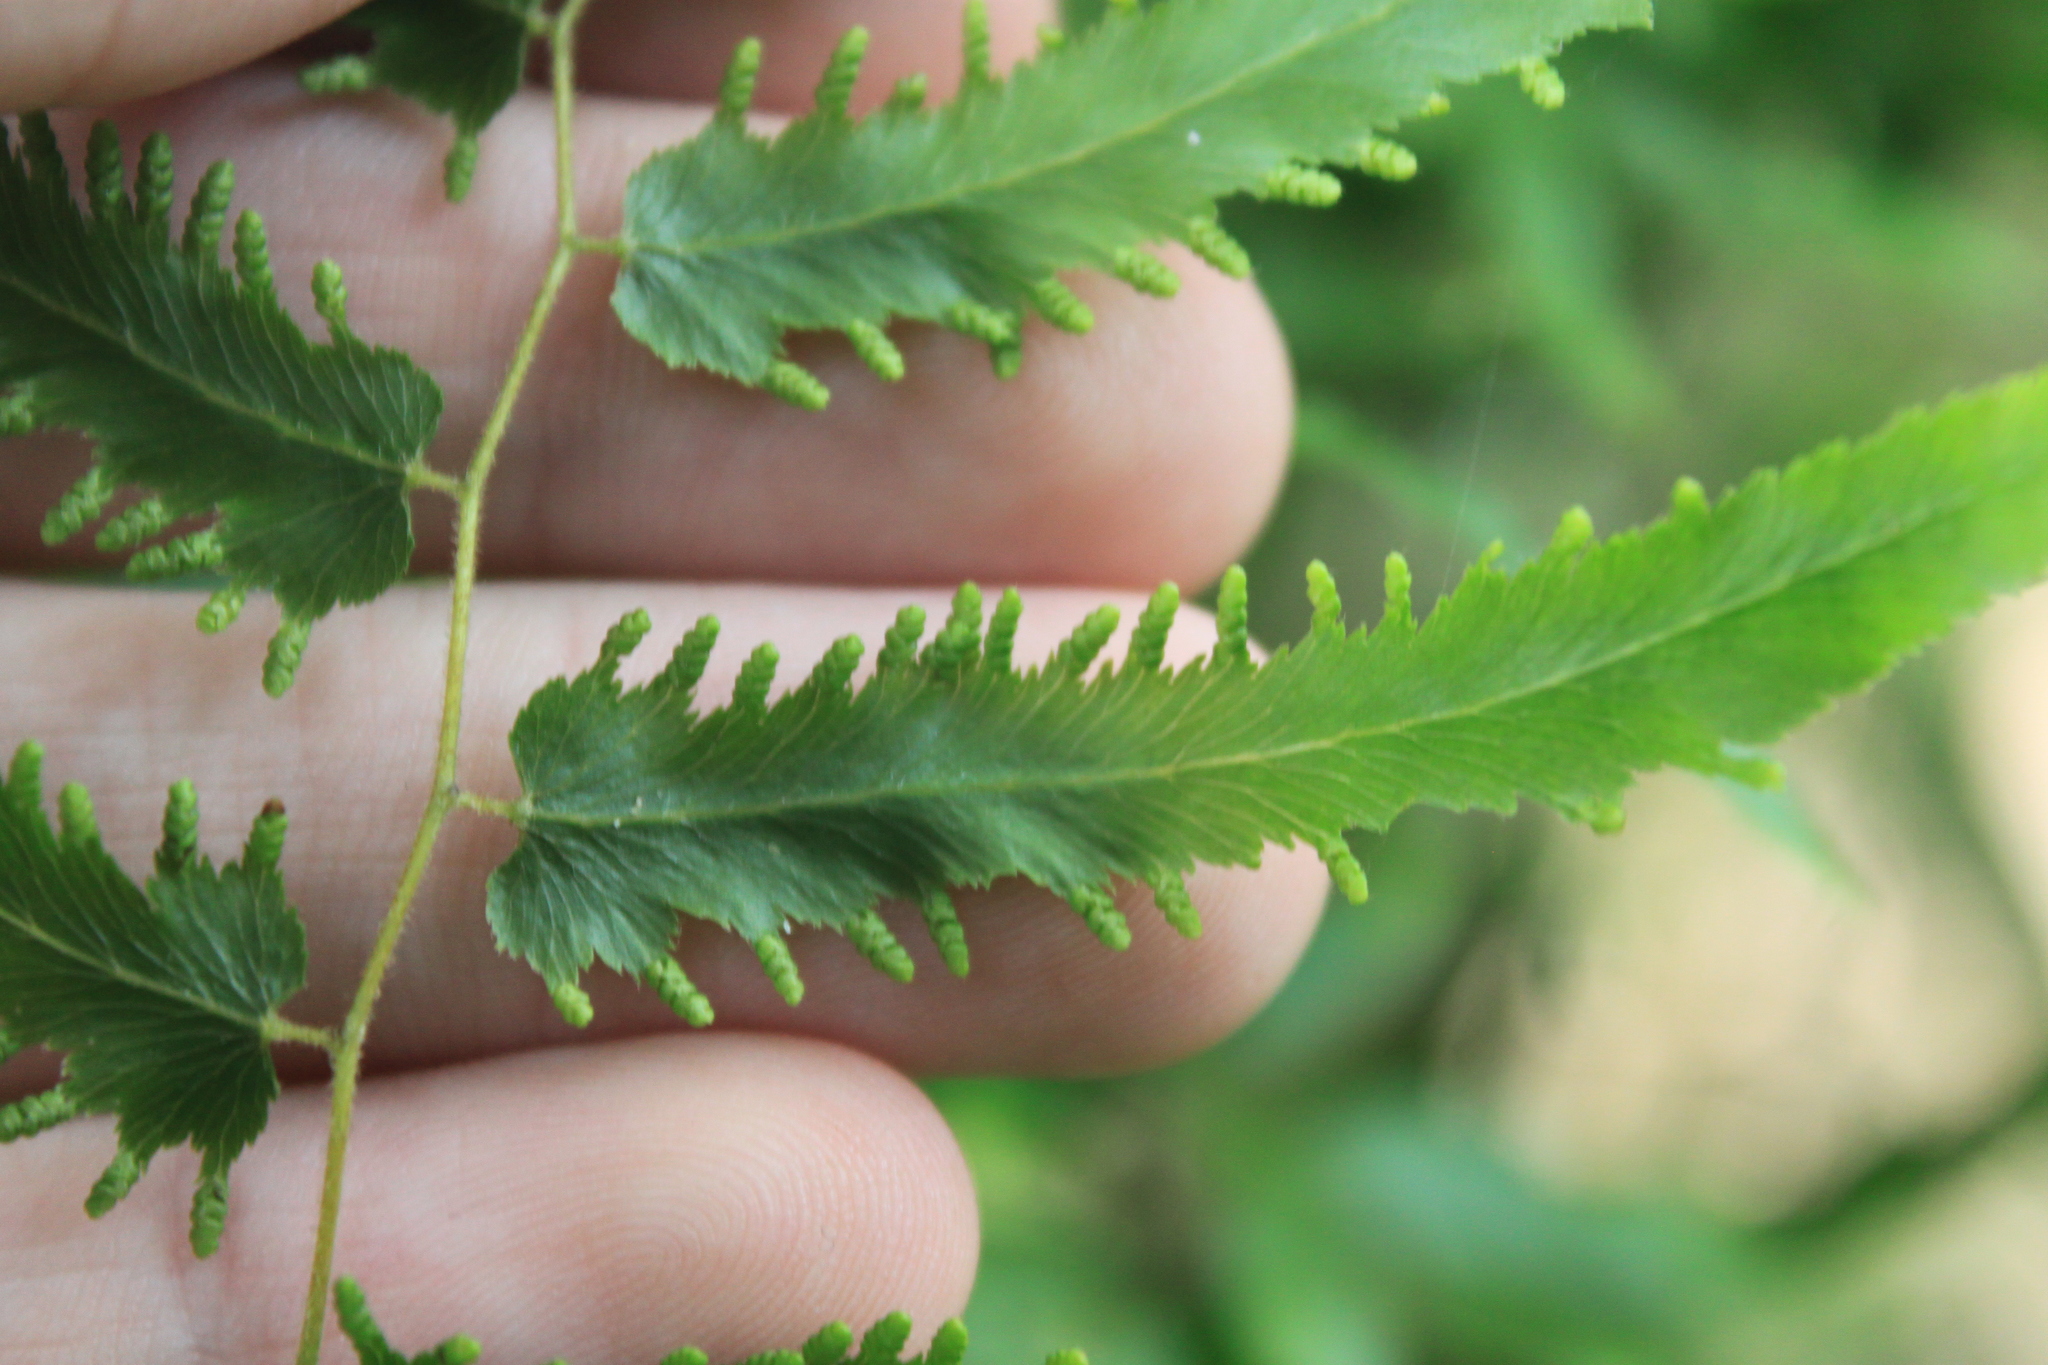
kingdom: Plantae
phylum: Tracheophyta
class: Polypodiopsida
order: Schizaeales
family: Lygodiaceae
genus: Lygodium
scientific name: Lygodium volubile
